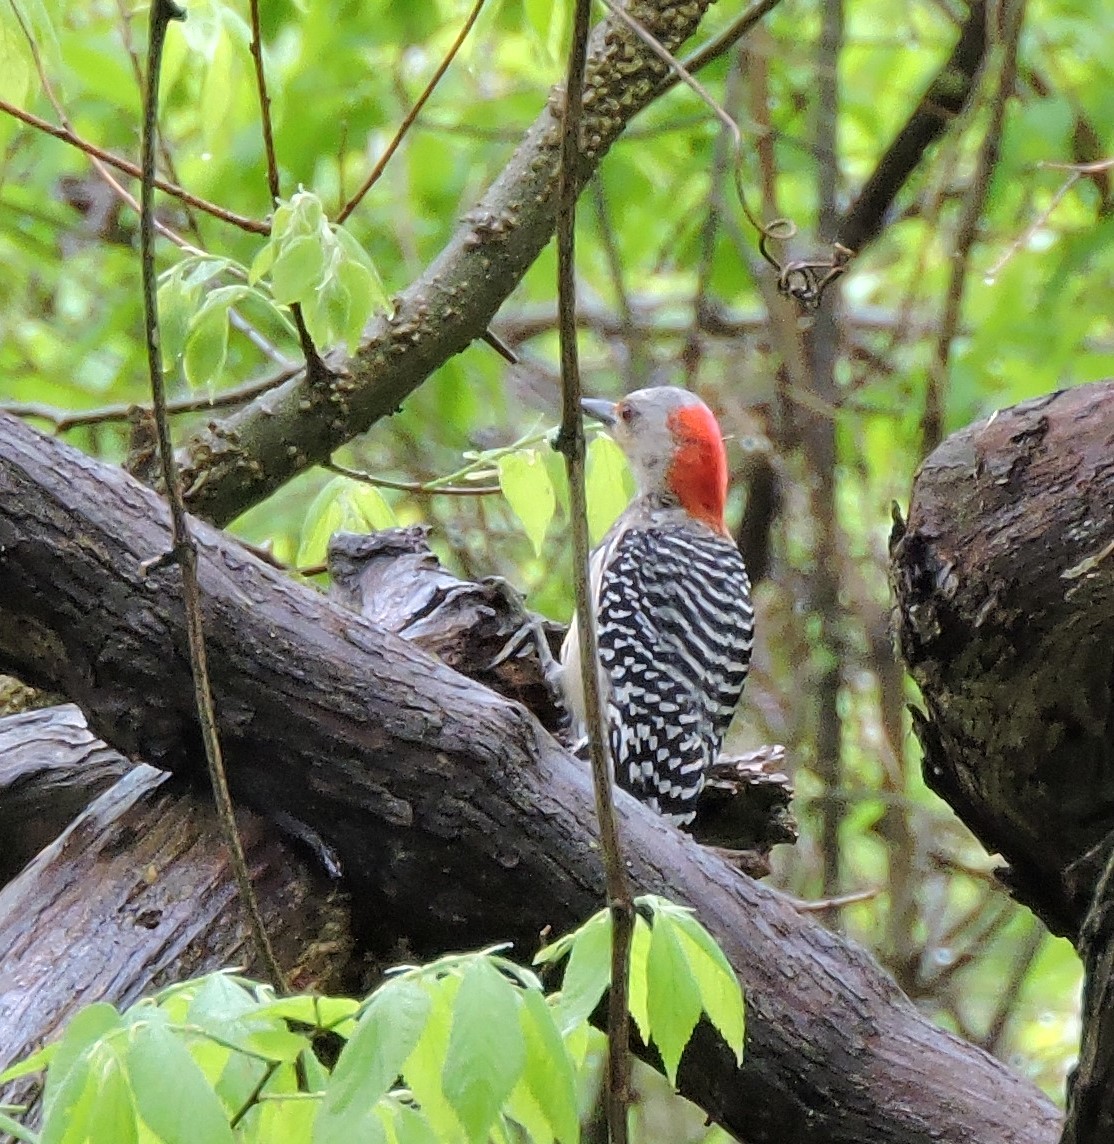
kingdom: Animalia
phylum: Chordata
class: Aves
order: Piciformes
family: Picidae
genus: Melanerpes
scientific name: Melanerpes carolinus
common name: Red-bellied woodpecker
